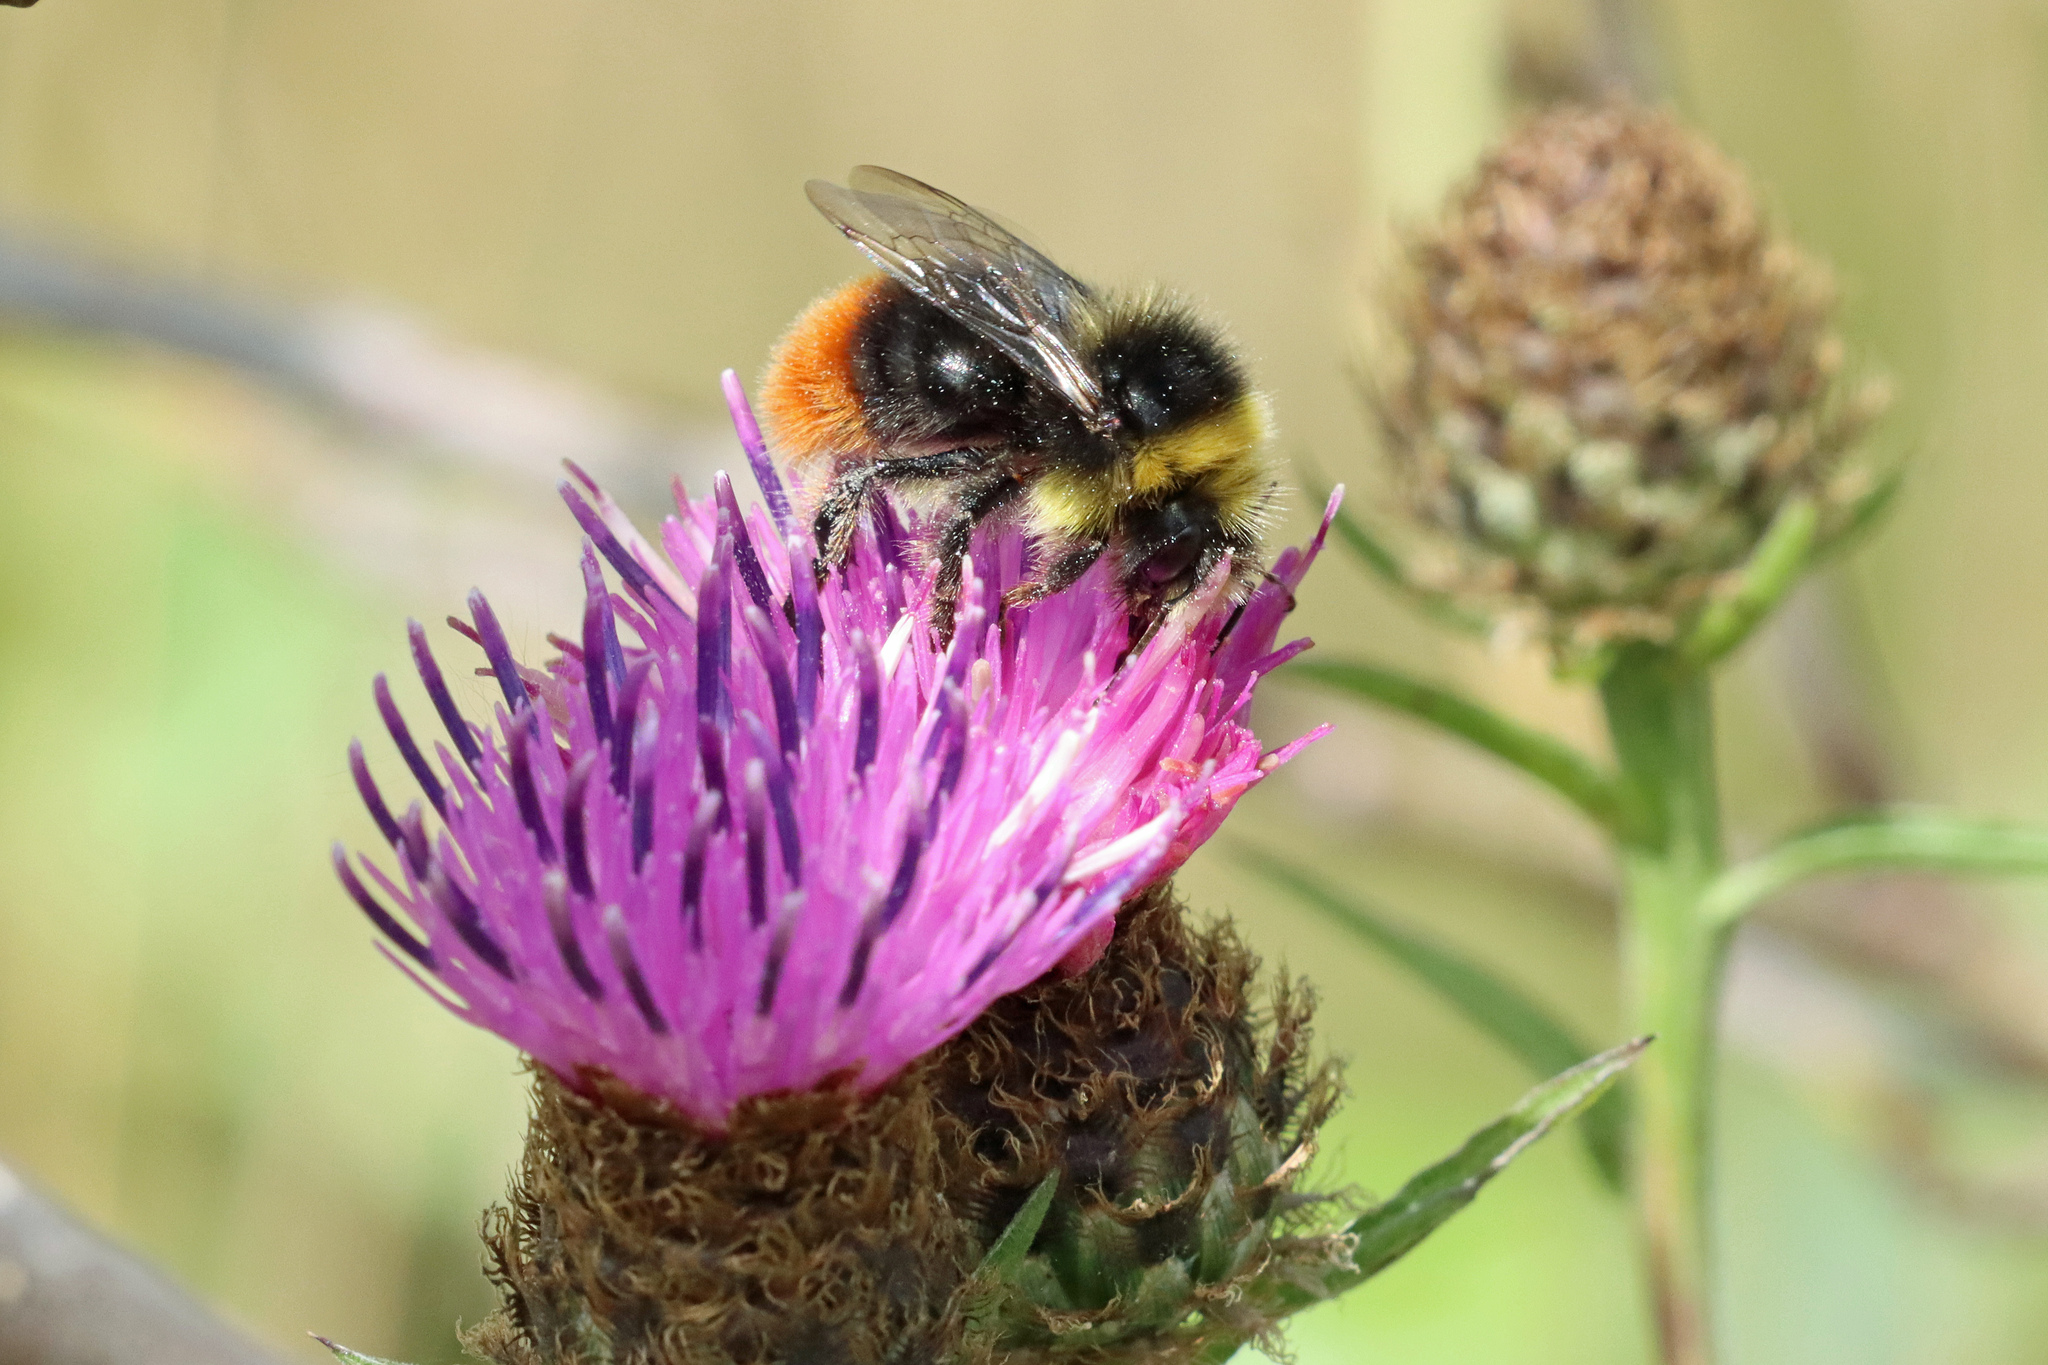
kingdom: Animalia
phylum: Arthropoda
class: Insecta
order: Hymenoptera
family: Apidae
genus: Bombus
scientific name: Bombus lapidarius
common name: Large red-tailed humble-bee
